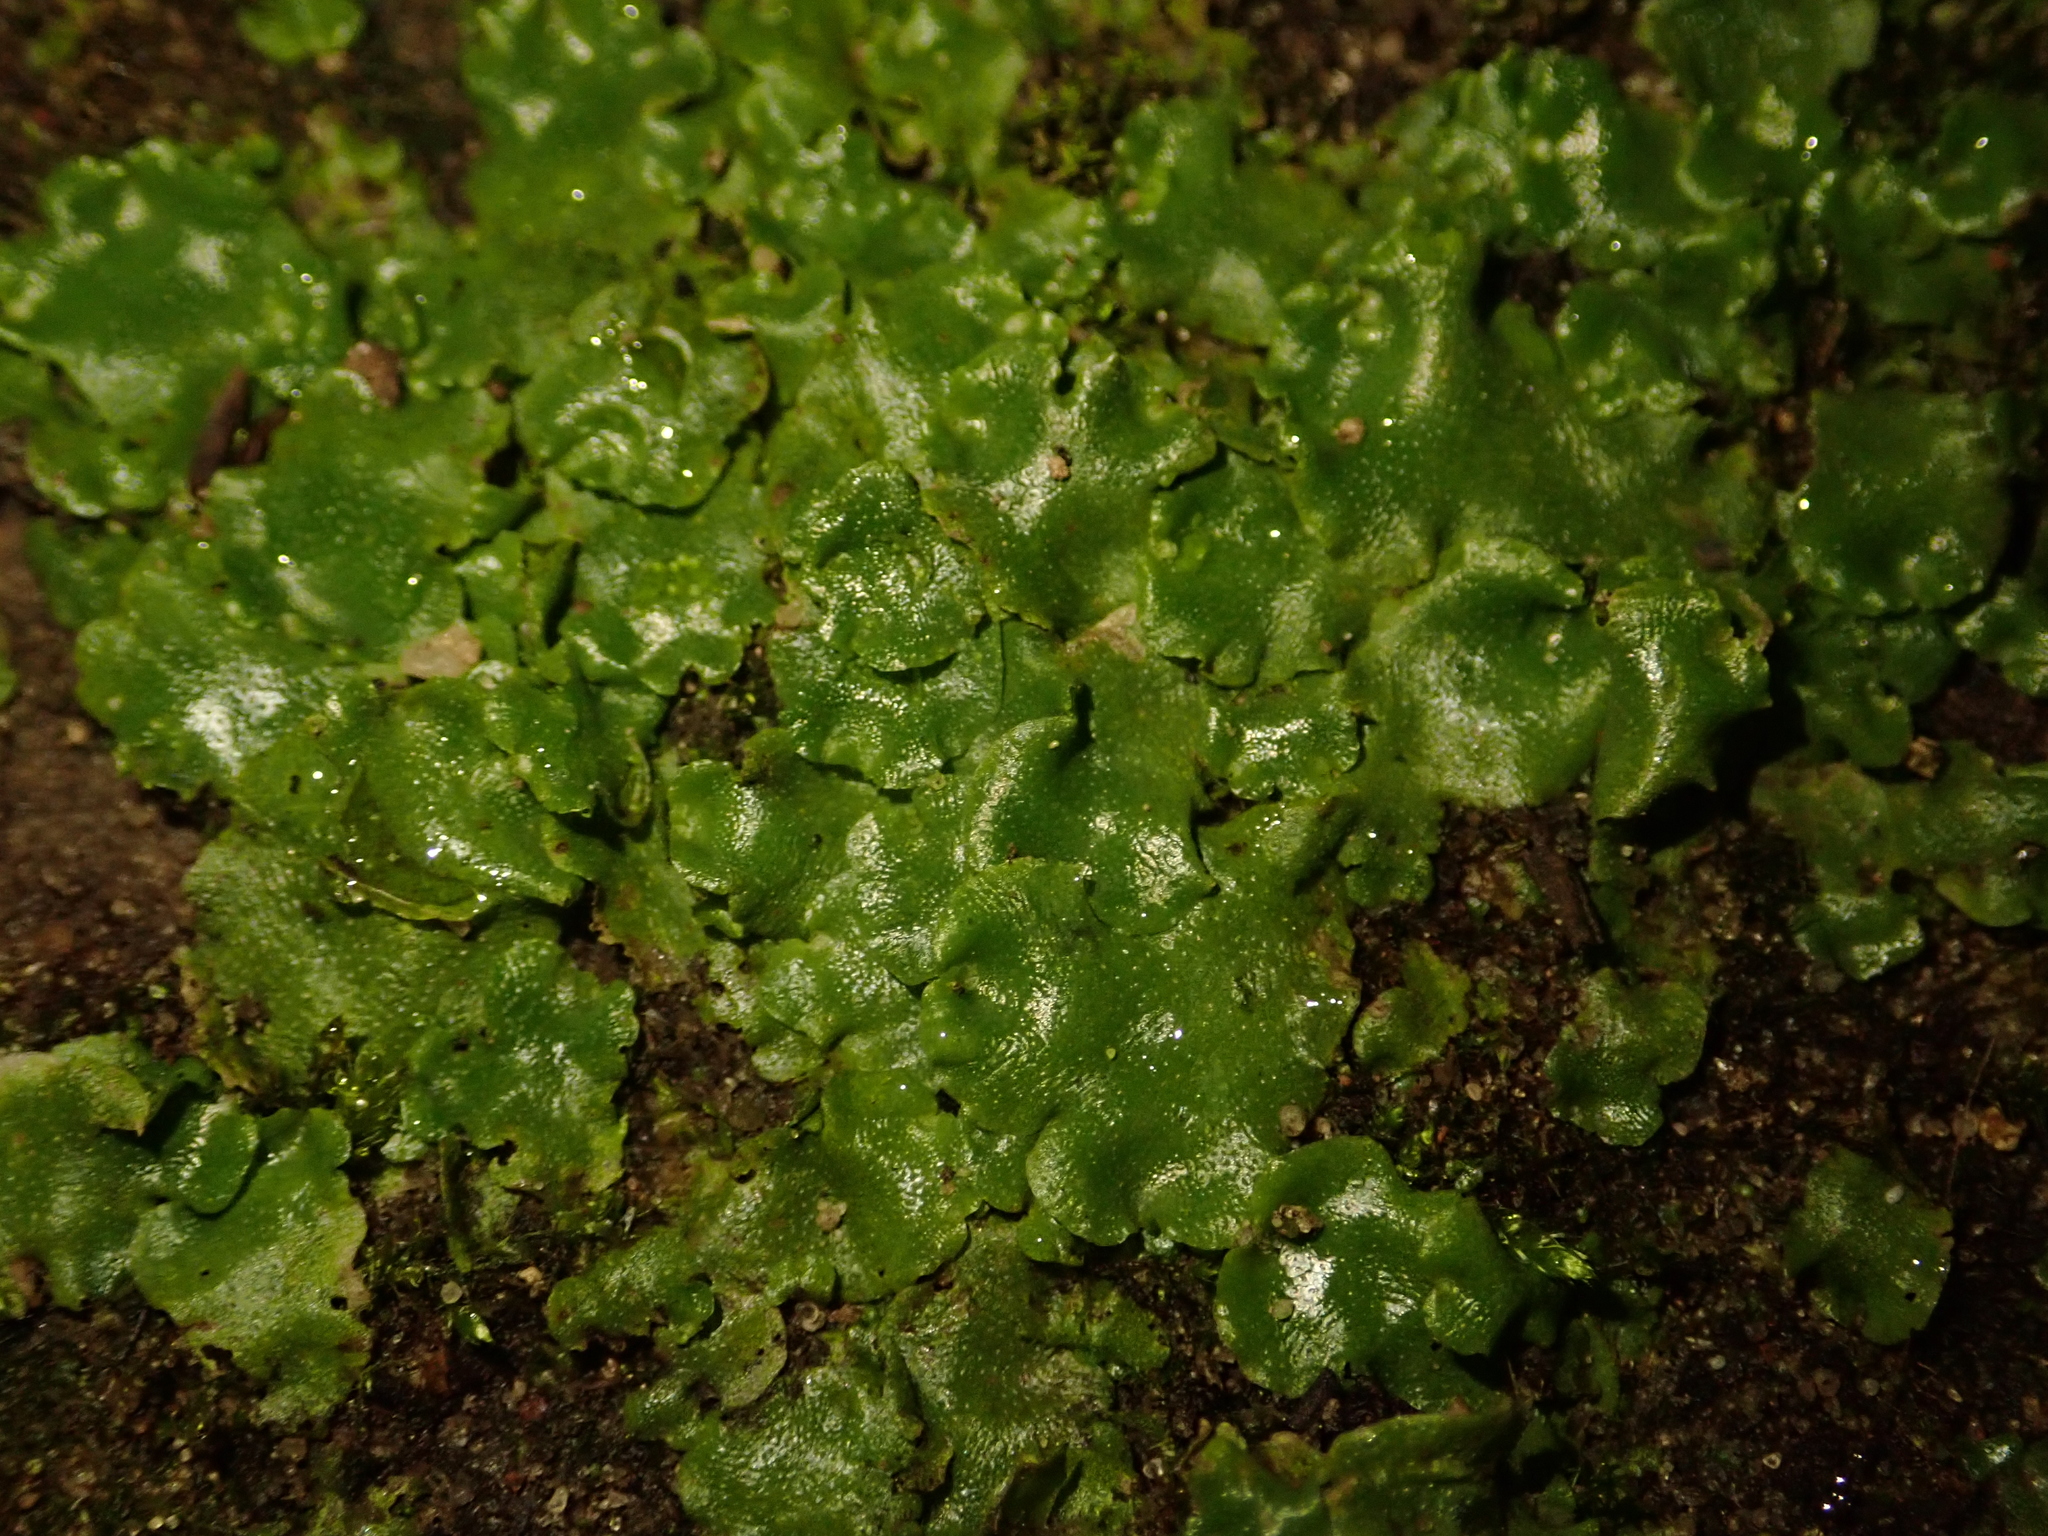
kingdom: Plantae
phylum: Marchantiophyta
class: Marchantiopsida
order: Lunulariales
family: Lunulariaceae
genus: Lunularia
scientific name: Lunularia cruciata
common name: Crescent-cup liverwort
